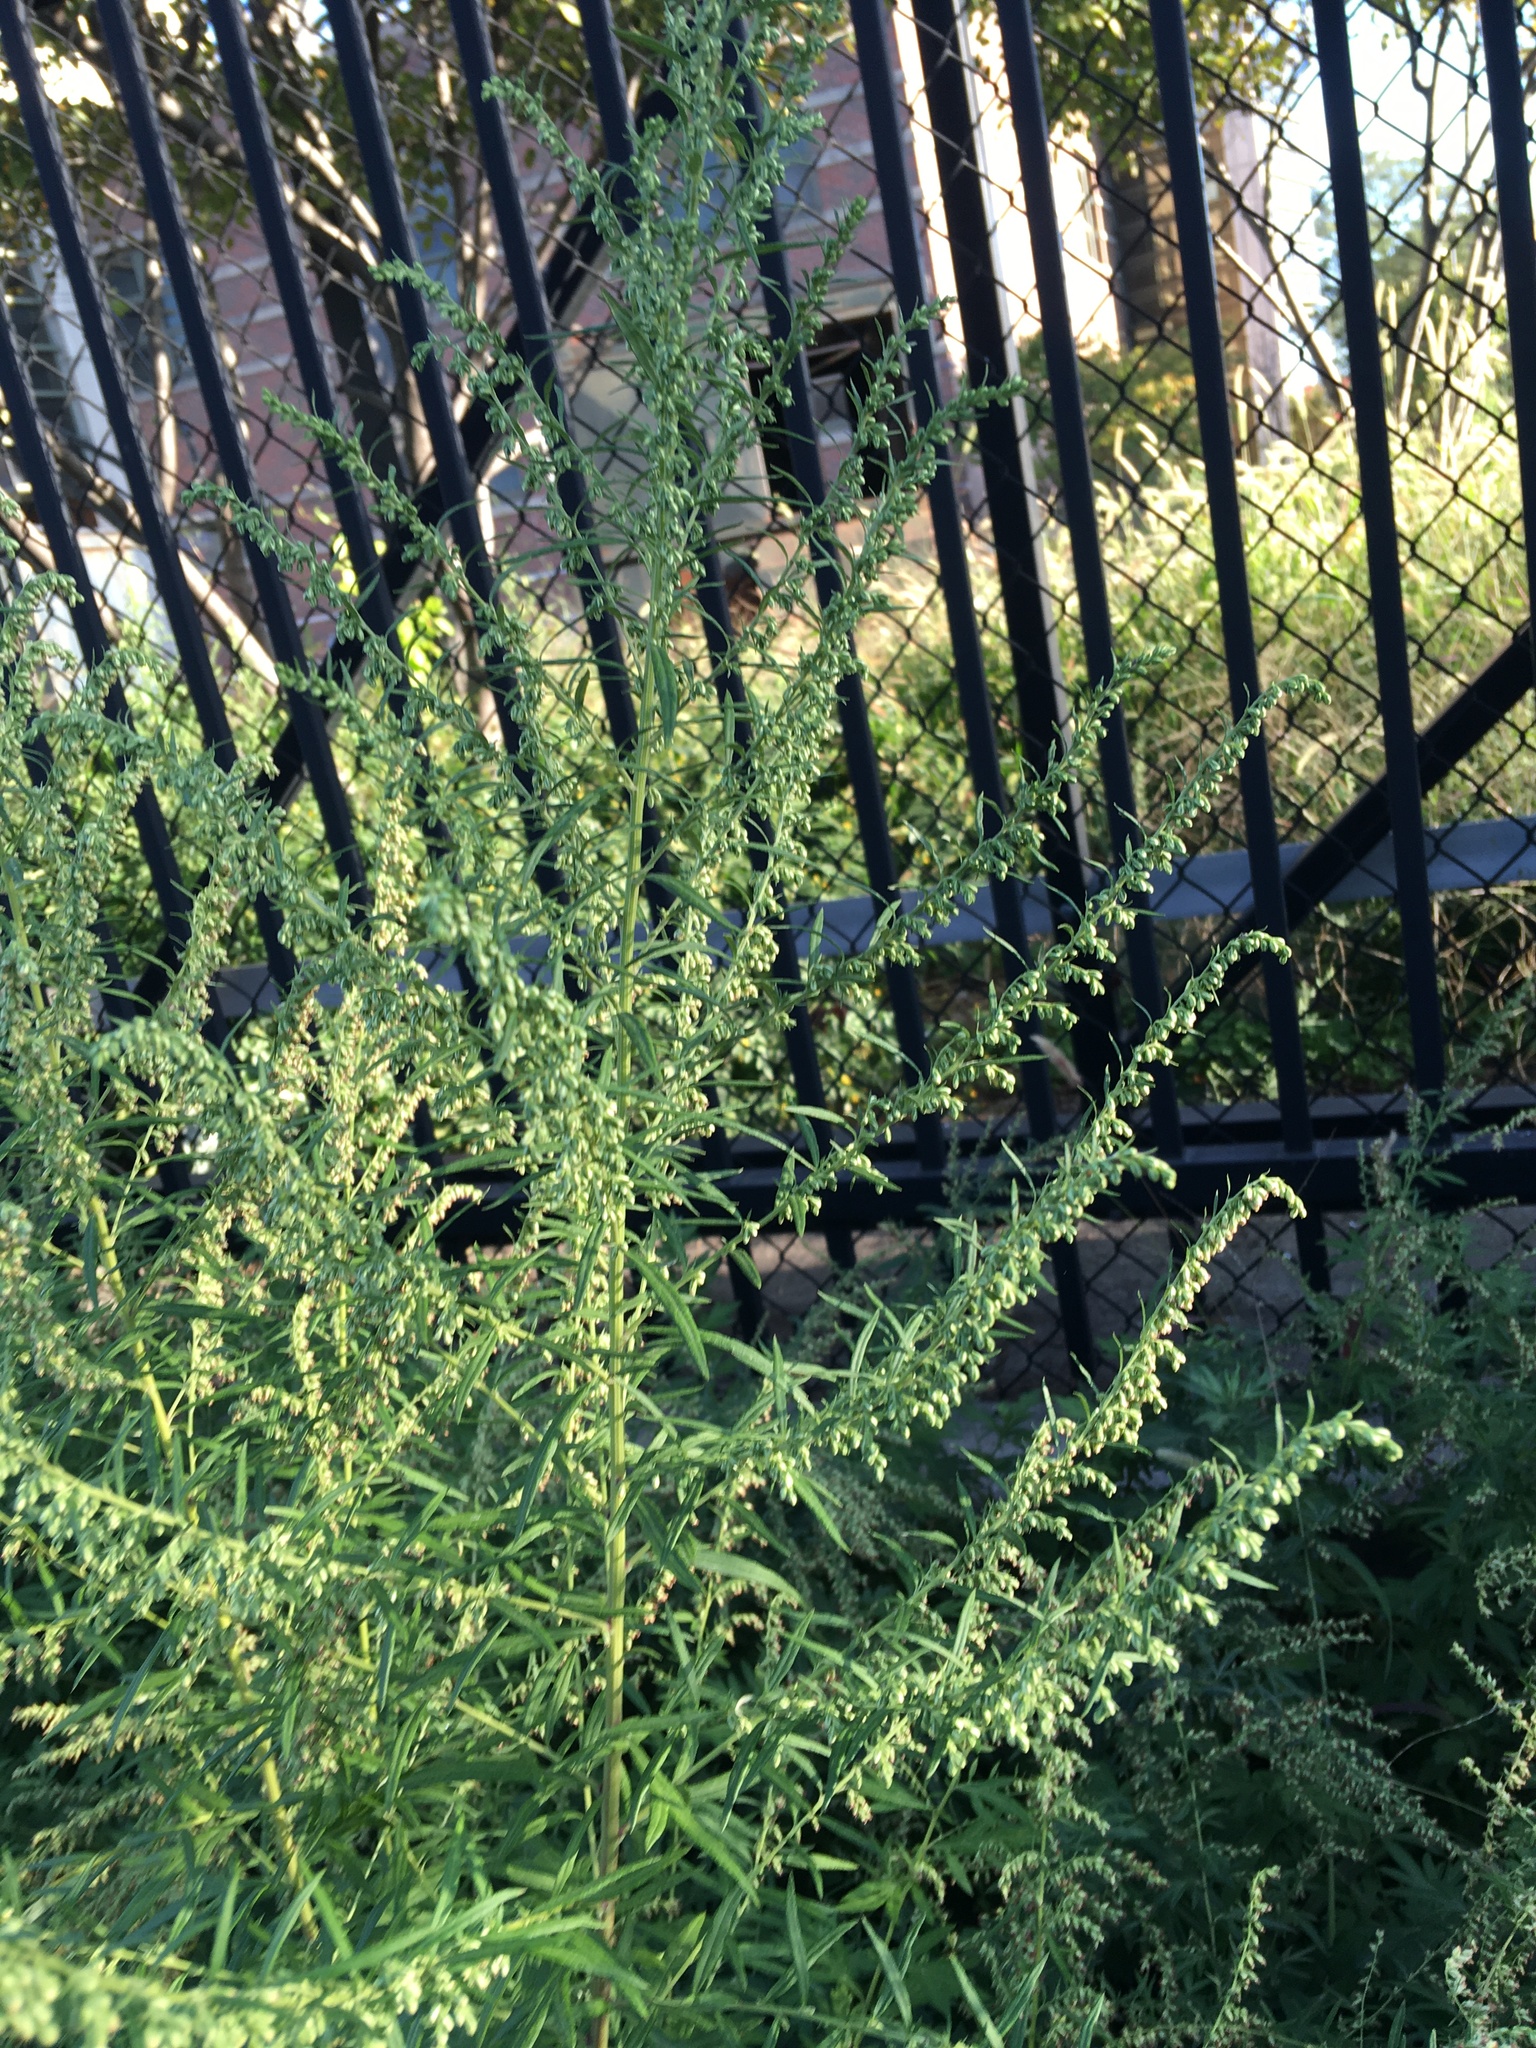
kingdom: Plantae
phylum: Tracheophyta
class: Magnoliopsida
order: Asterales
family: Asteraceae
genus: Artemisia
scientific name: Artemisia vulgaris
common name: Mugwort
